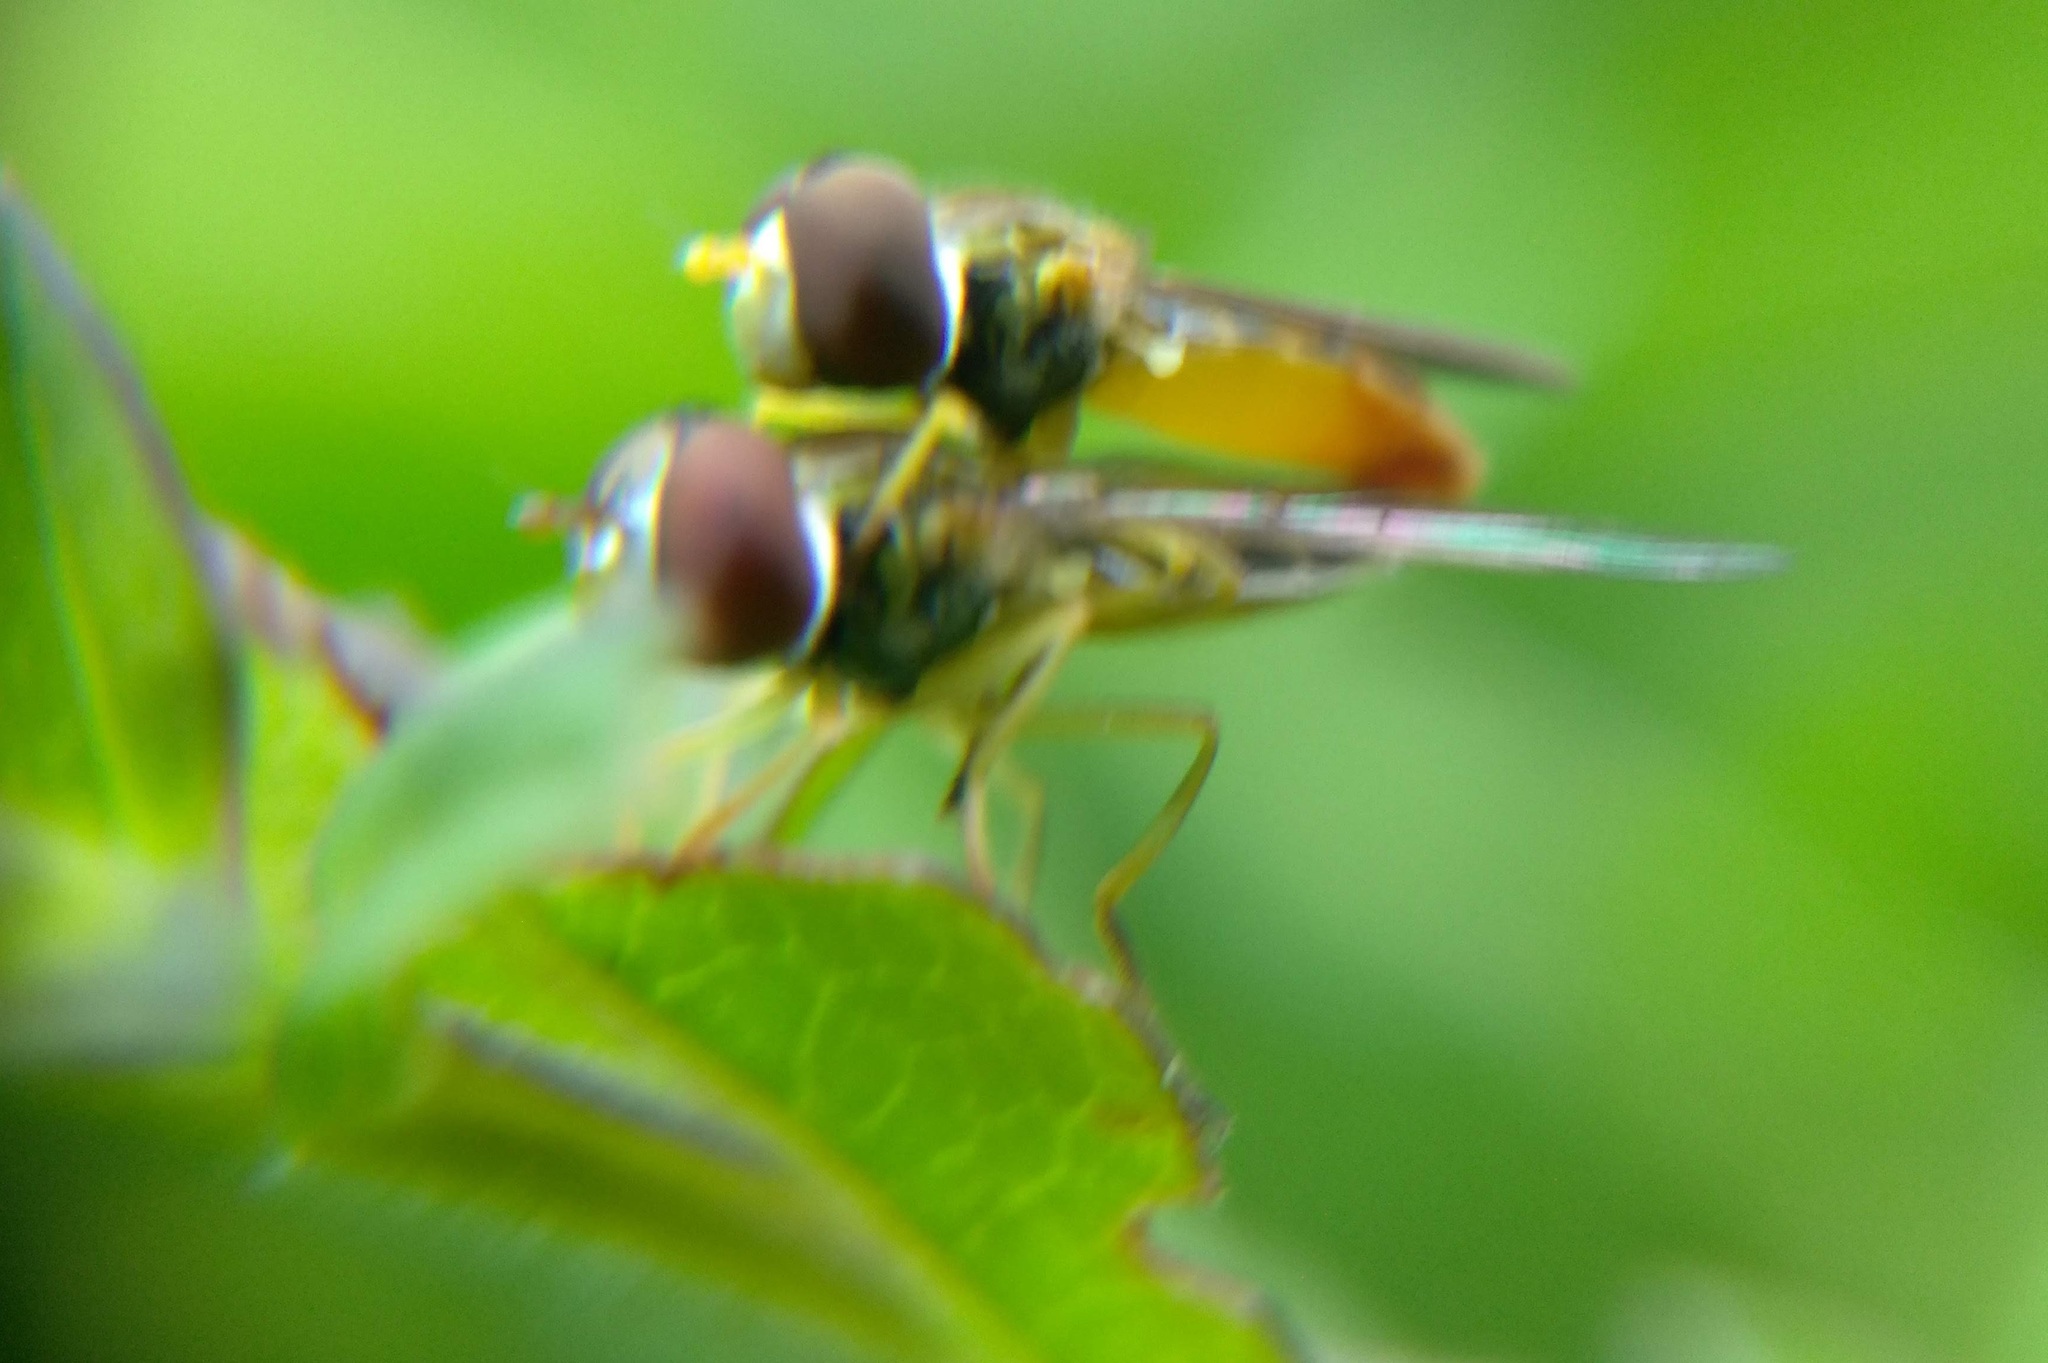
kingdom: Animalia
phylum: Arthropoda
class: Insecta
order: Diptera
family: Syrphidae
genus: Toxomerus
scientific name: Toxomerus
